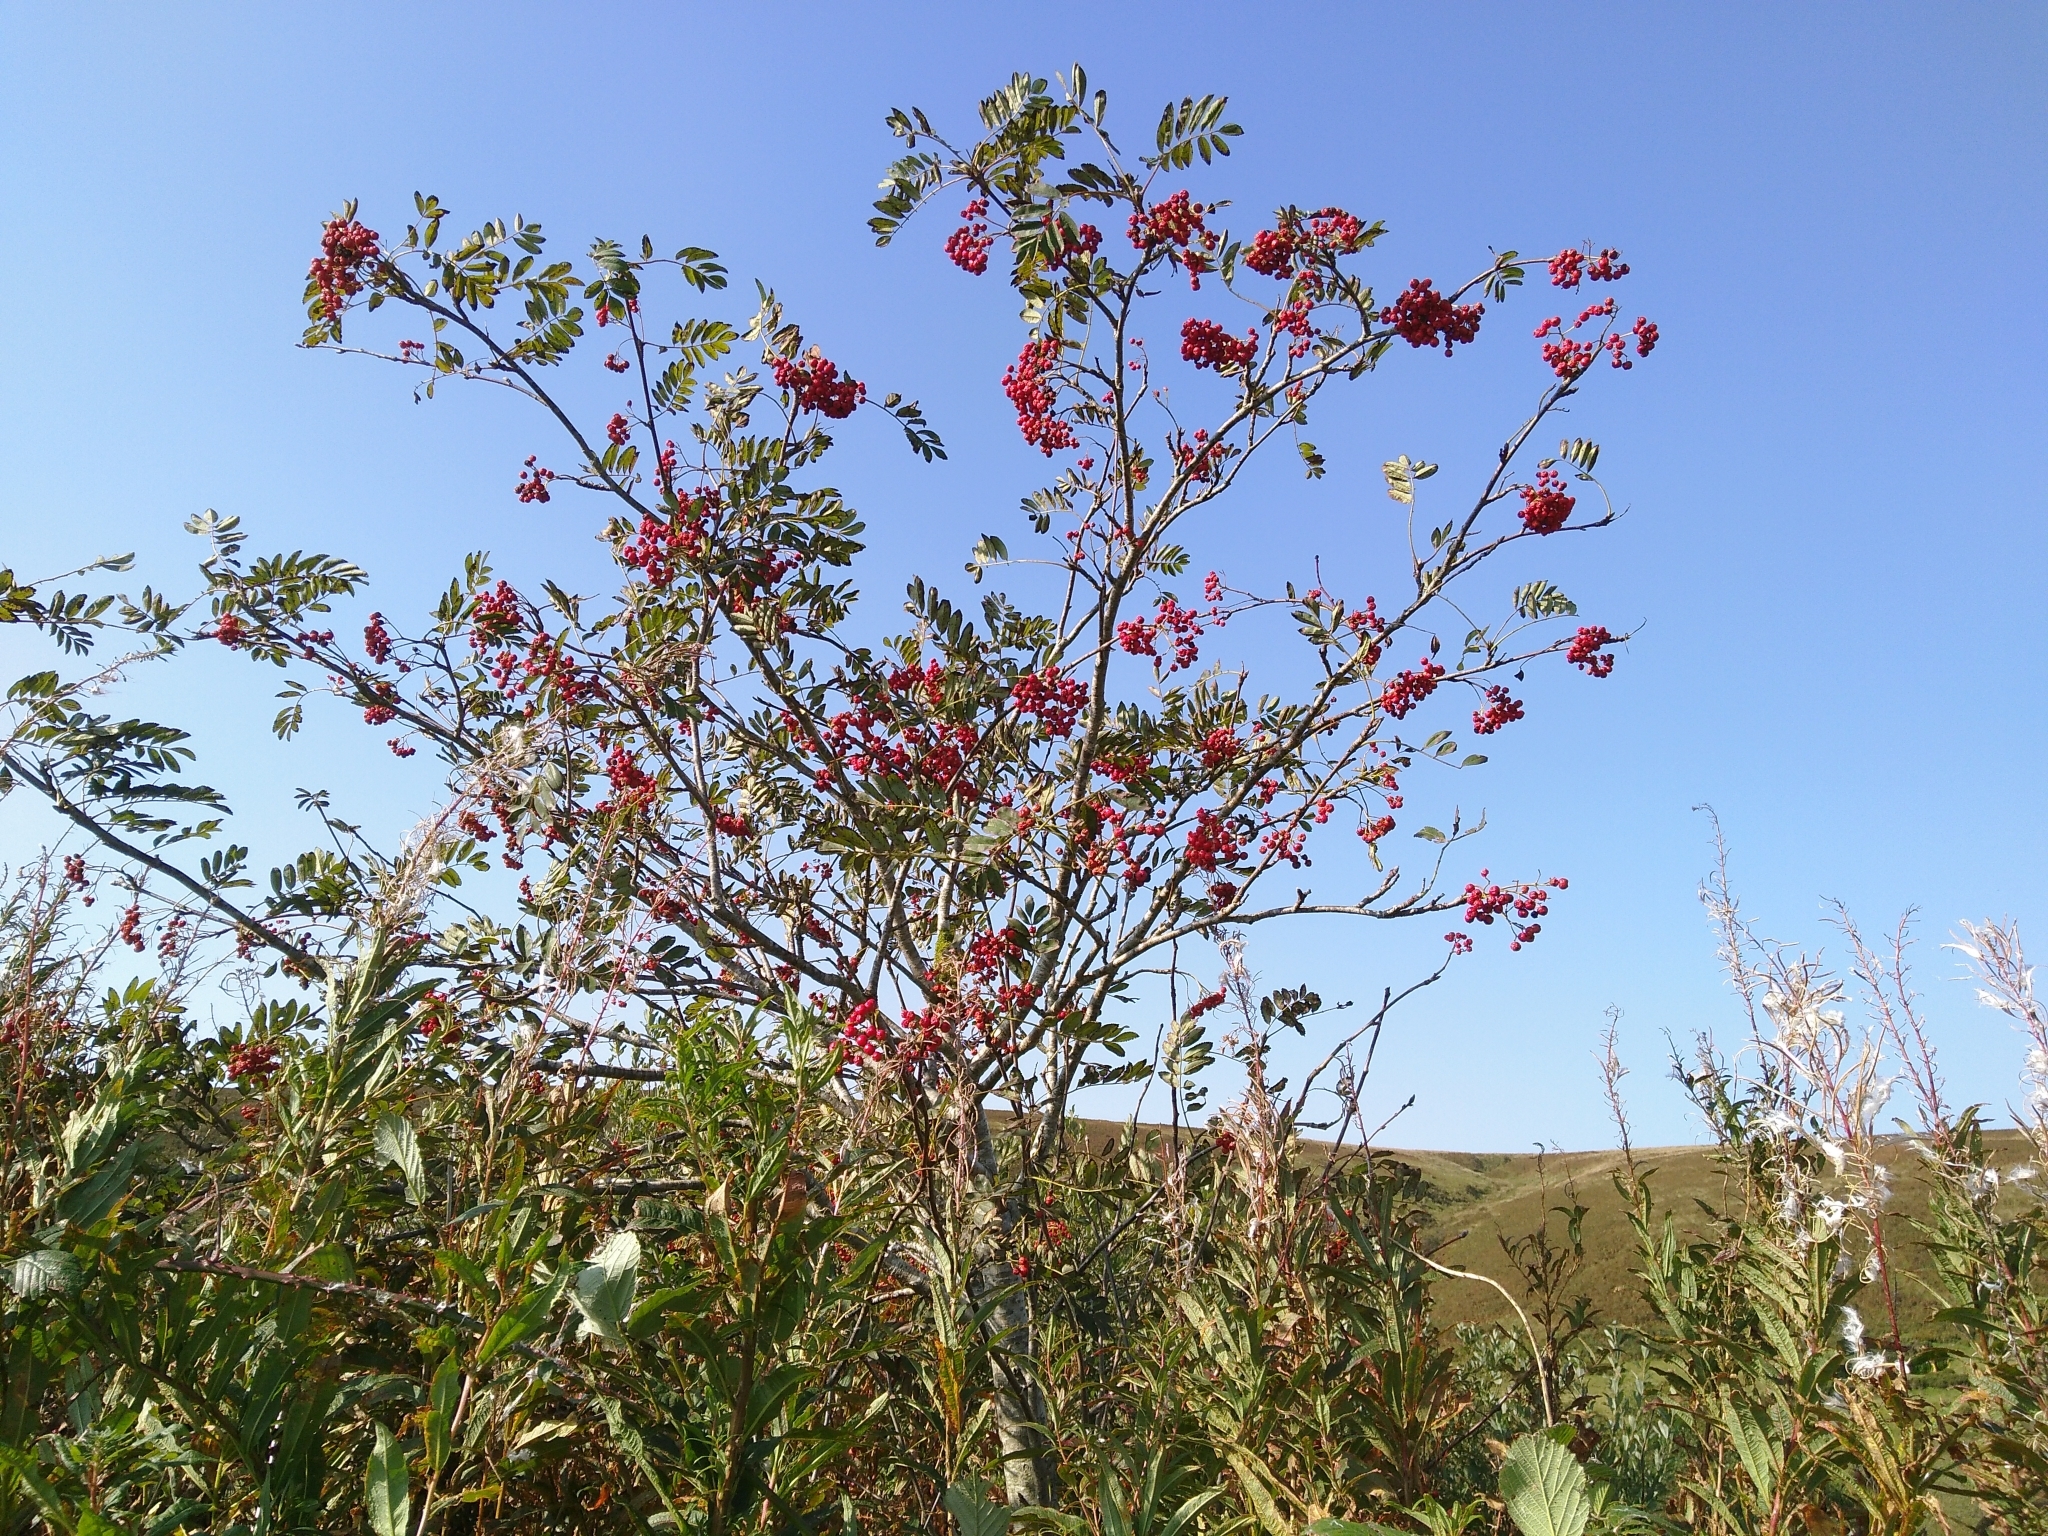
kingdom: Plantae
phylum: Tracheophyta
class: Magnoliopsida
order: Rosales
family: Rosaceae
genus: Sorbus
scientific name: Sorbus aucuparia
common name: Rowan
